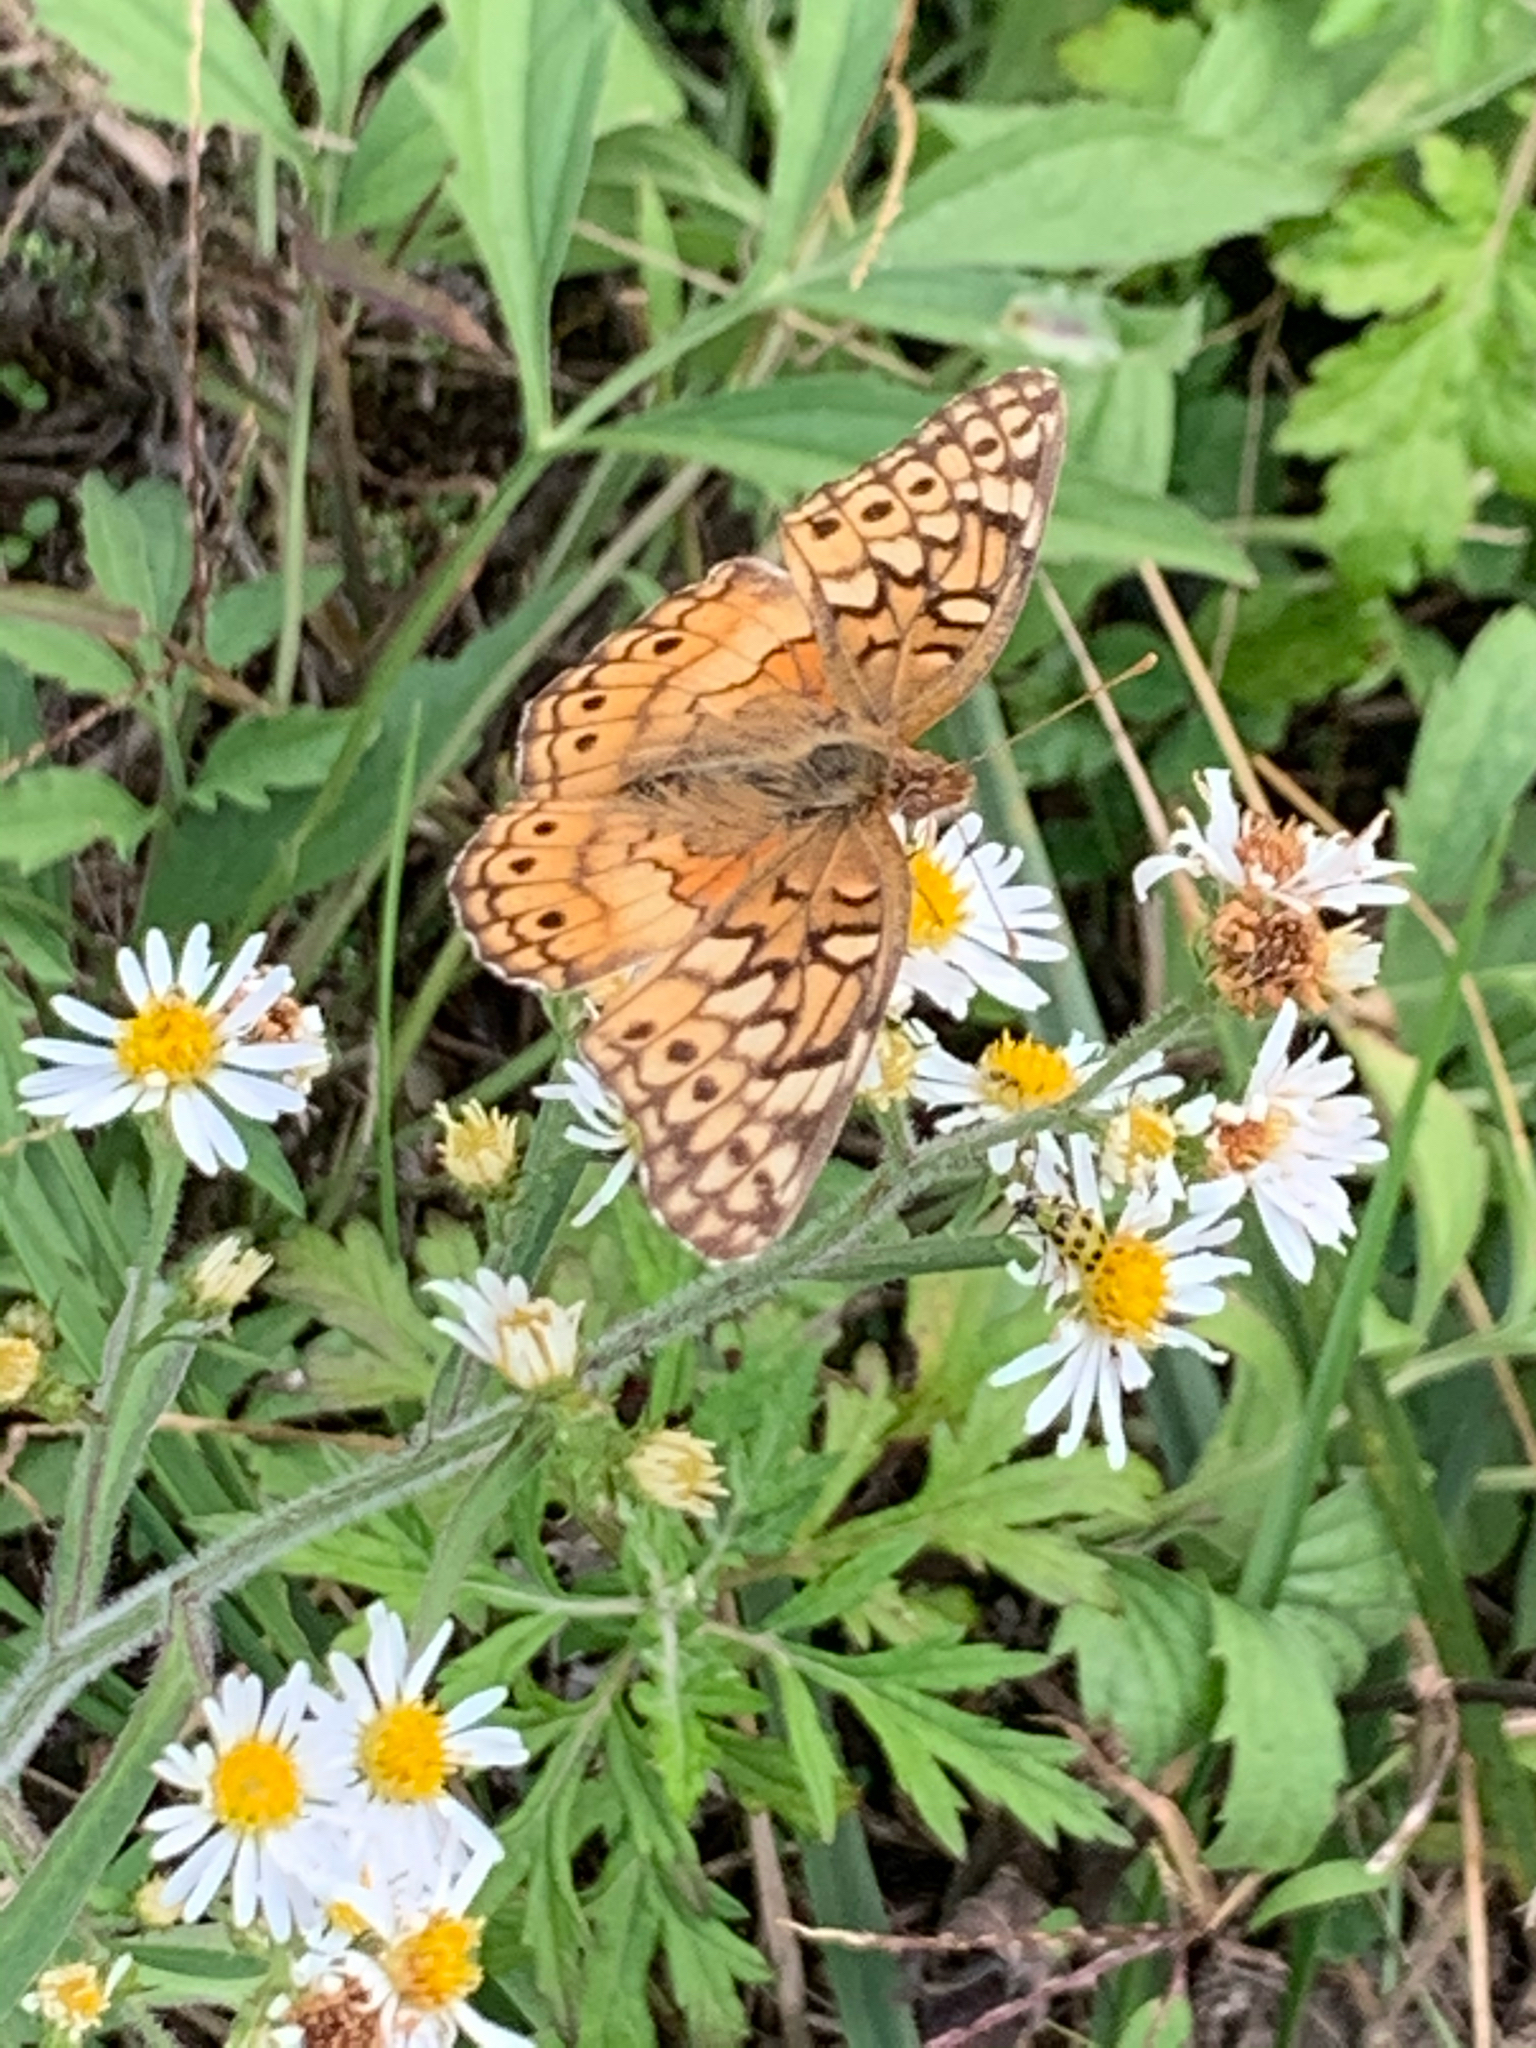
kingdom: Animalia
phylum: Arthropoda
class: Insecta
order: Lepidoptera
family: Nymphalidae
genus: Euptoieta
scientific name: Euptoieta claudia
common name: Variegated fritillary
